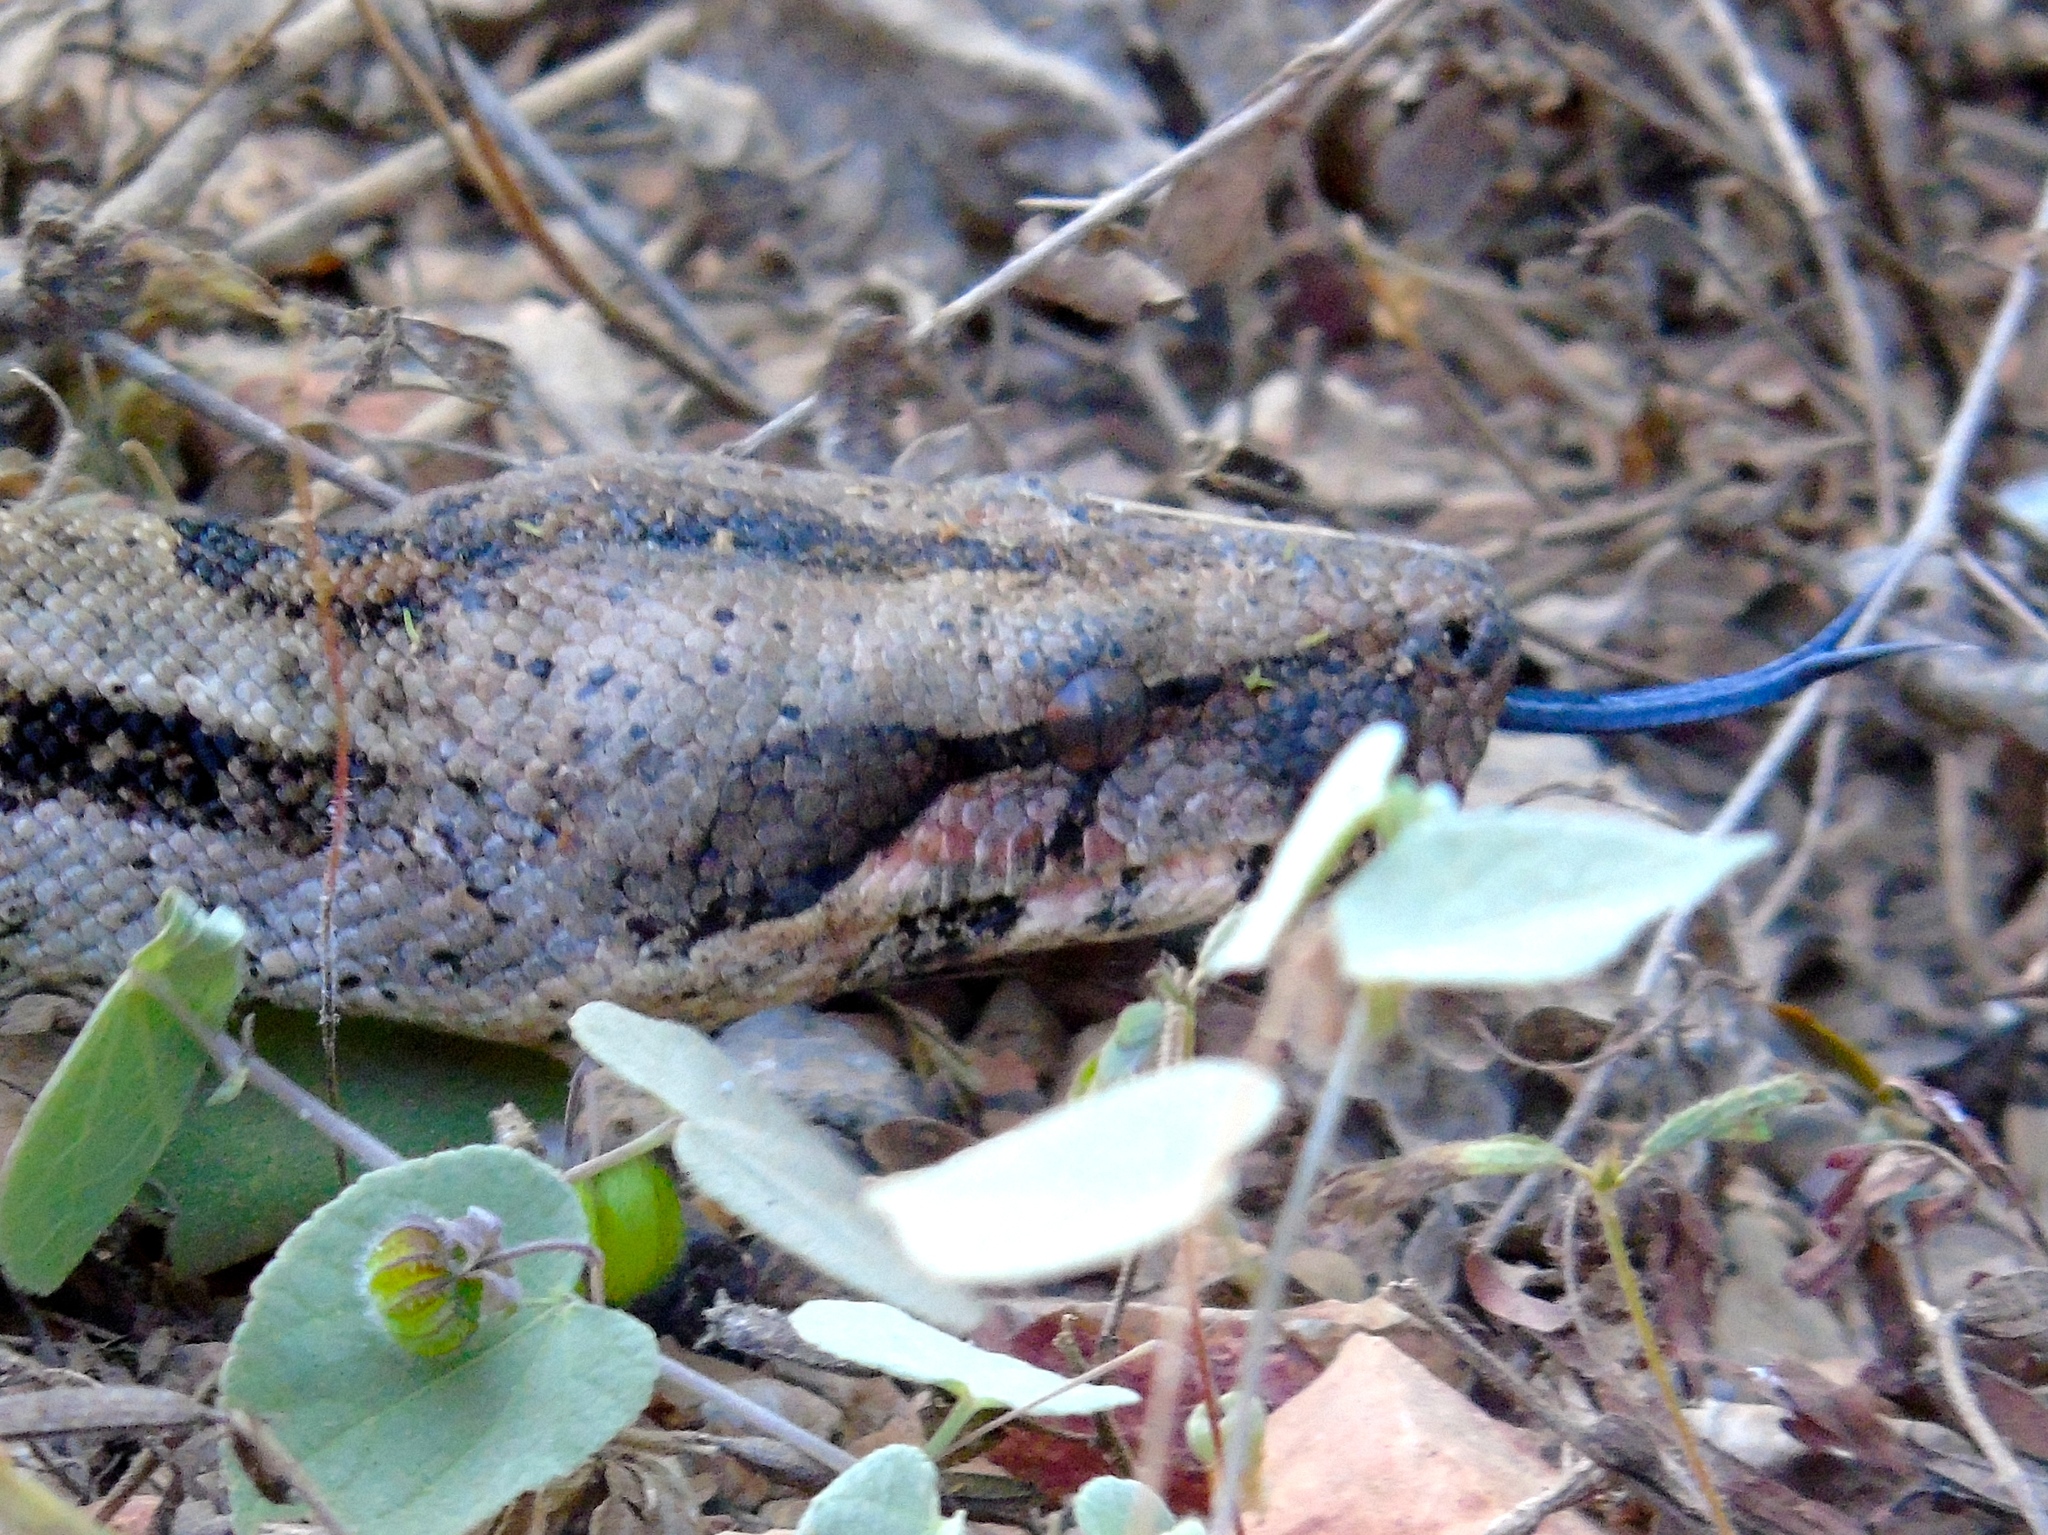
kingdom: Animalia
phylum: Chordata
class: Squamata
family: Boidae
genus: Boa
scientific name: Boa
